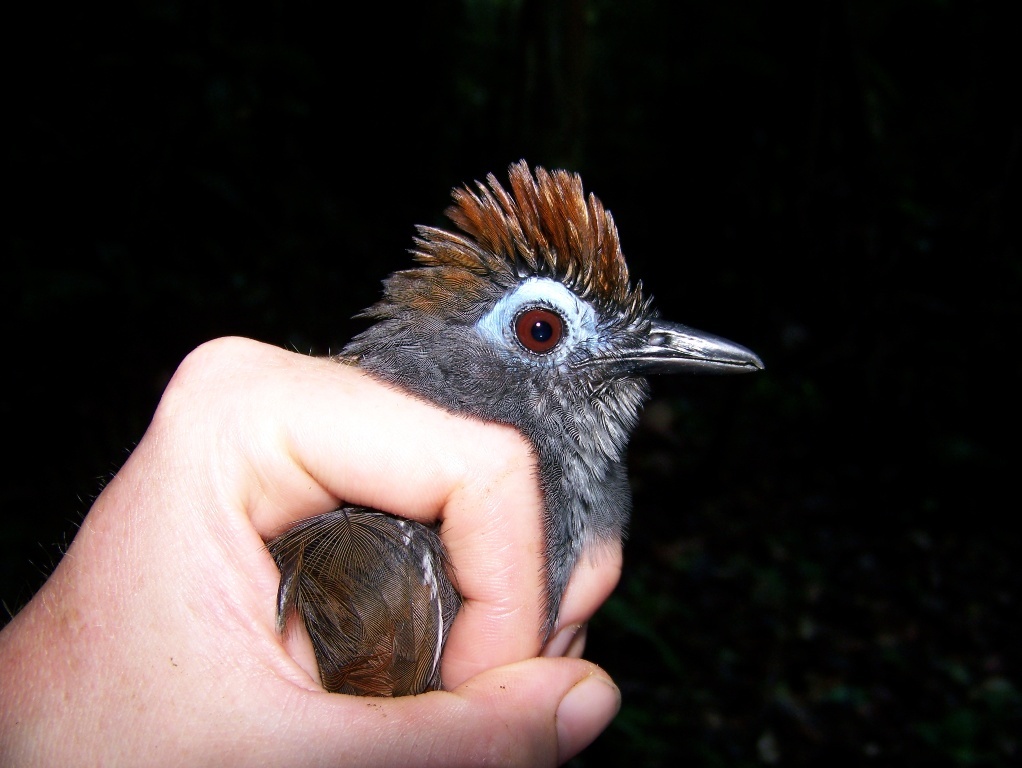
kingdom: Animalia
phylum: Chordata
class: Aves
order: Passeriformes
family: Thamnophilidae
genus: Myrmeciza
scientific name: Myrmeciza fortis
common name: Sooty antbird
